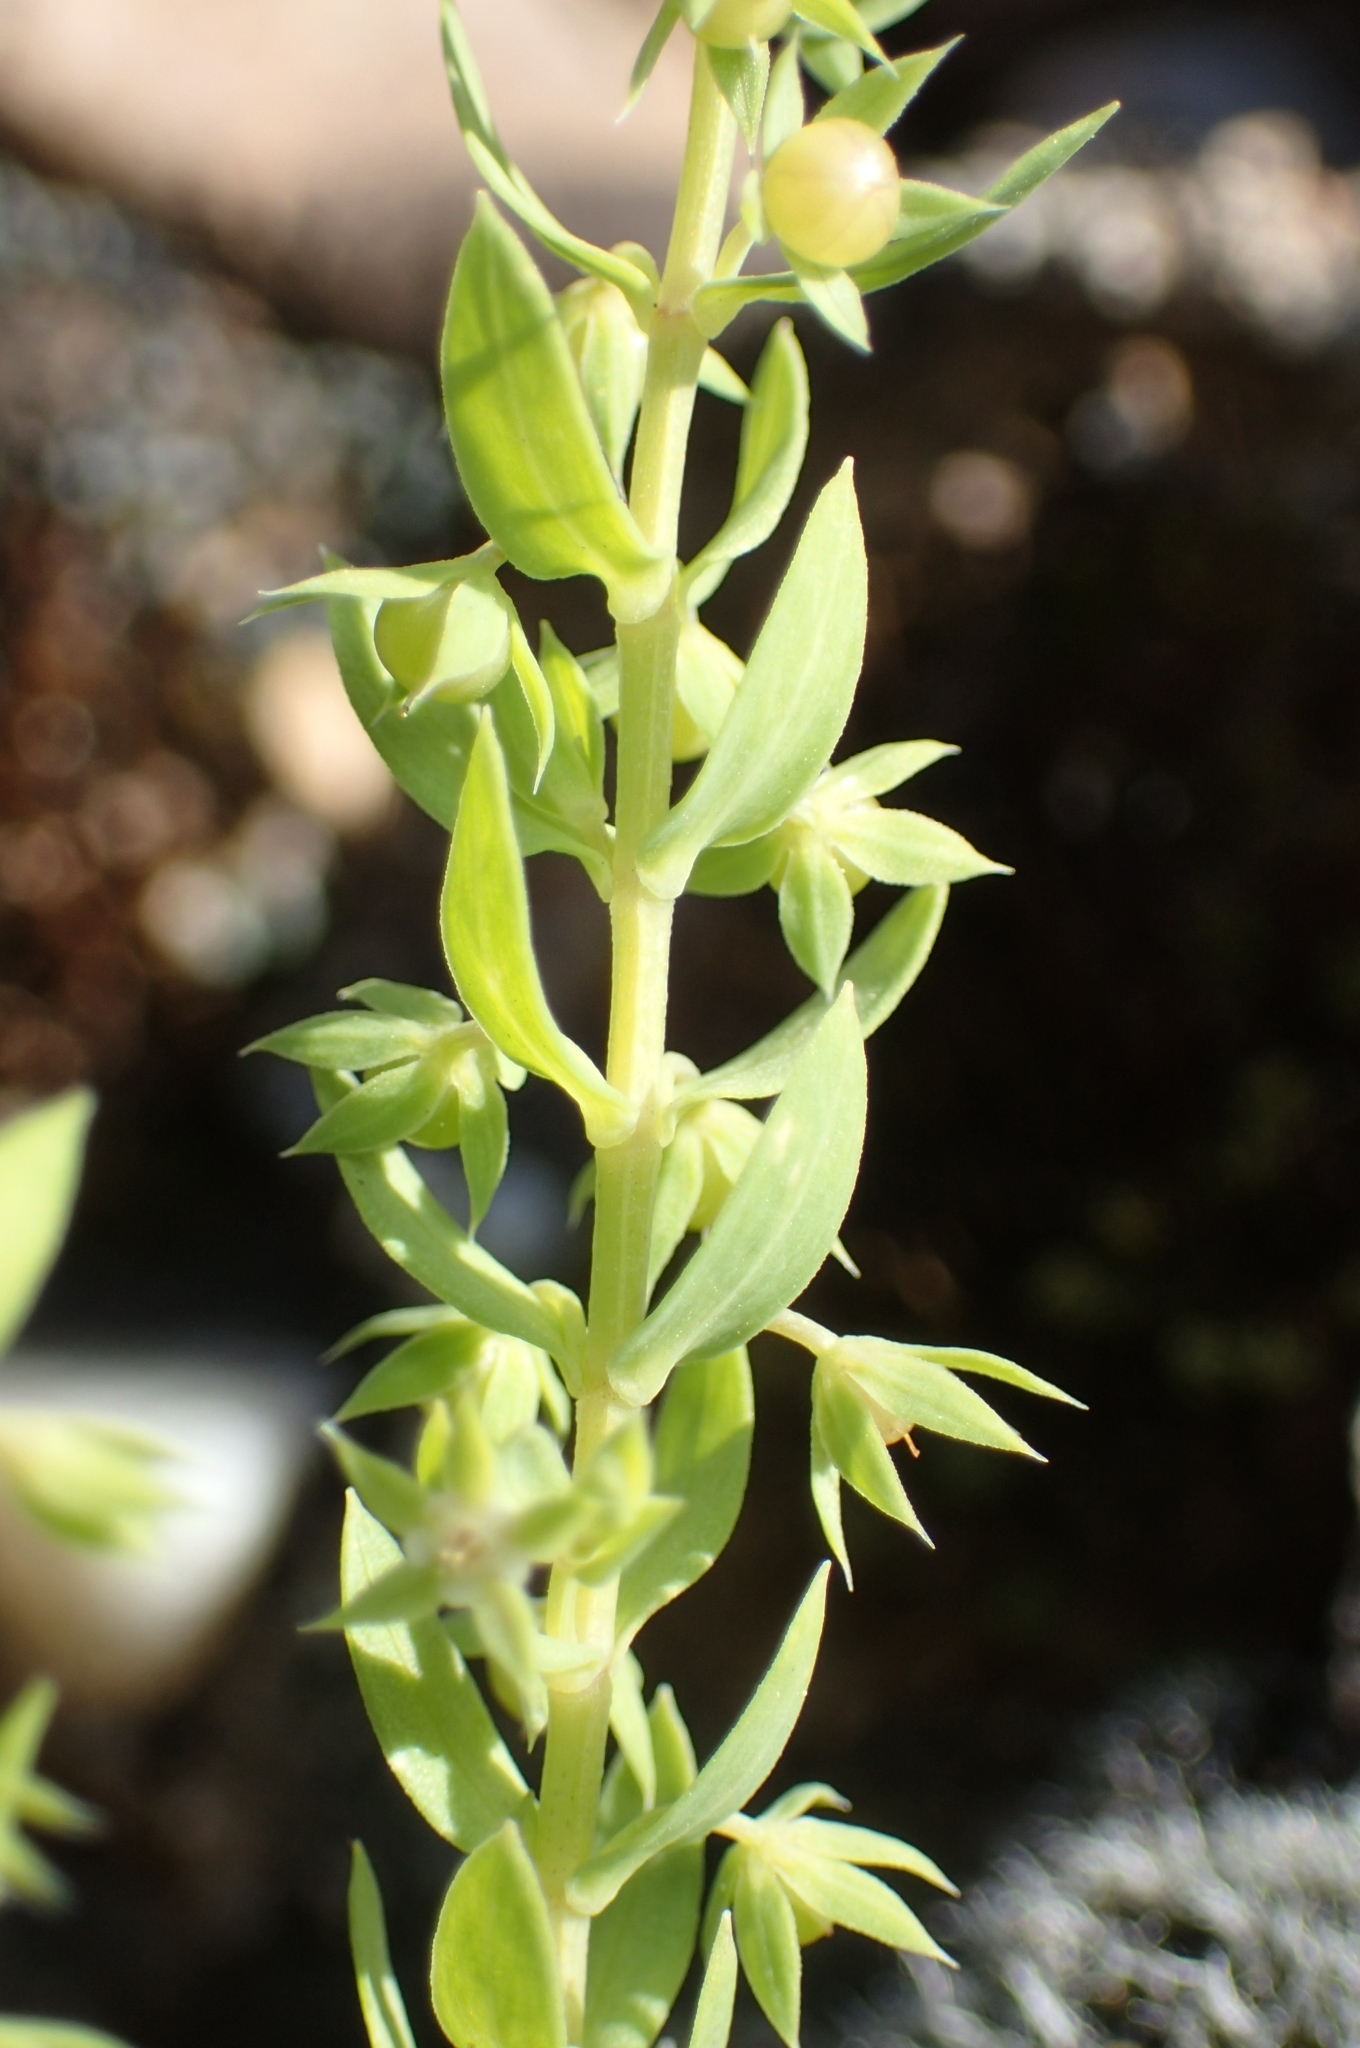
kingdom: Plantae
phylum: Tracheophyta
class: Magnoliopsida
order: Ericales
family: Primulaceae
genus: Lysimachia
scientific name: Lysimachia linum-stellatum
